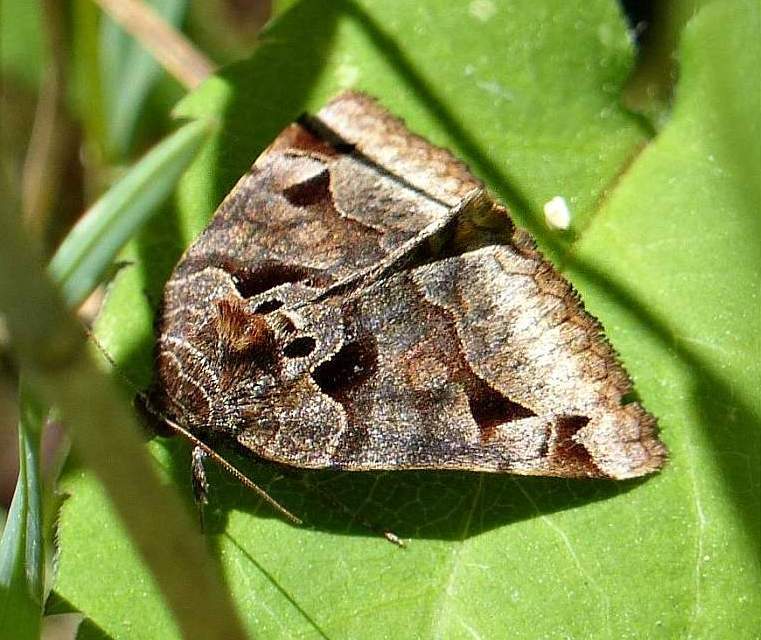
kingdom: Animalia
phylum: Arthropoda
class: Insecta
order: Lepidoptera
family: Erebidae
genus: Euclidia
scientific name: Euclidia cuspidea
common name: Toothed somberwing
